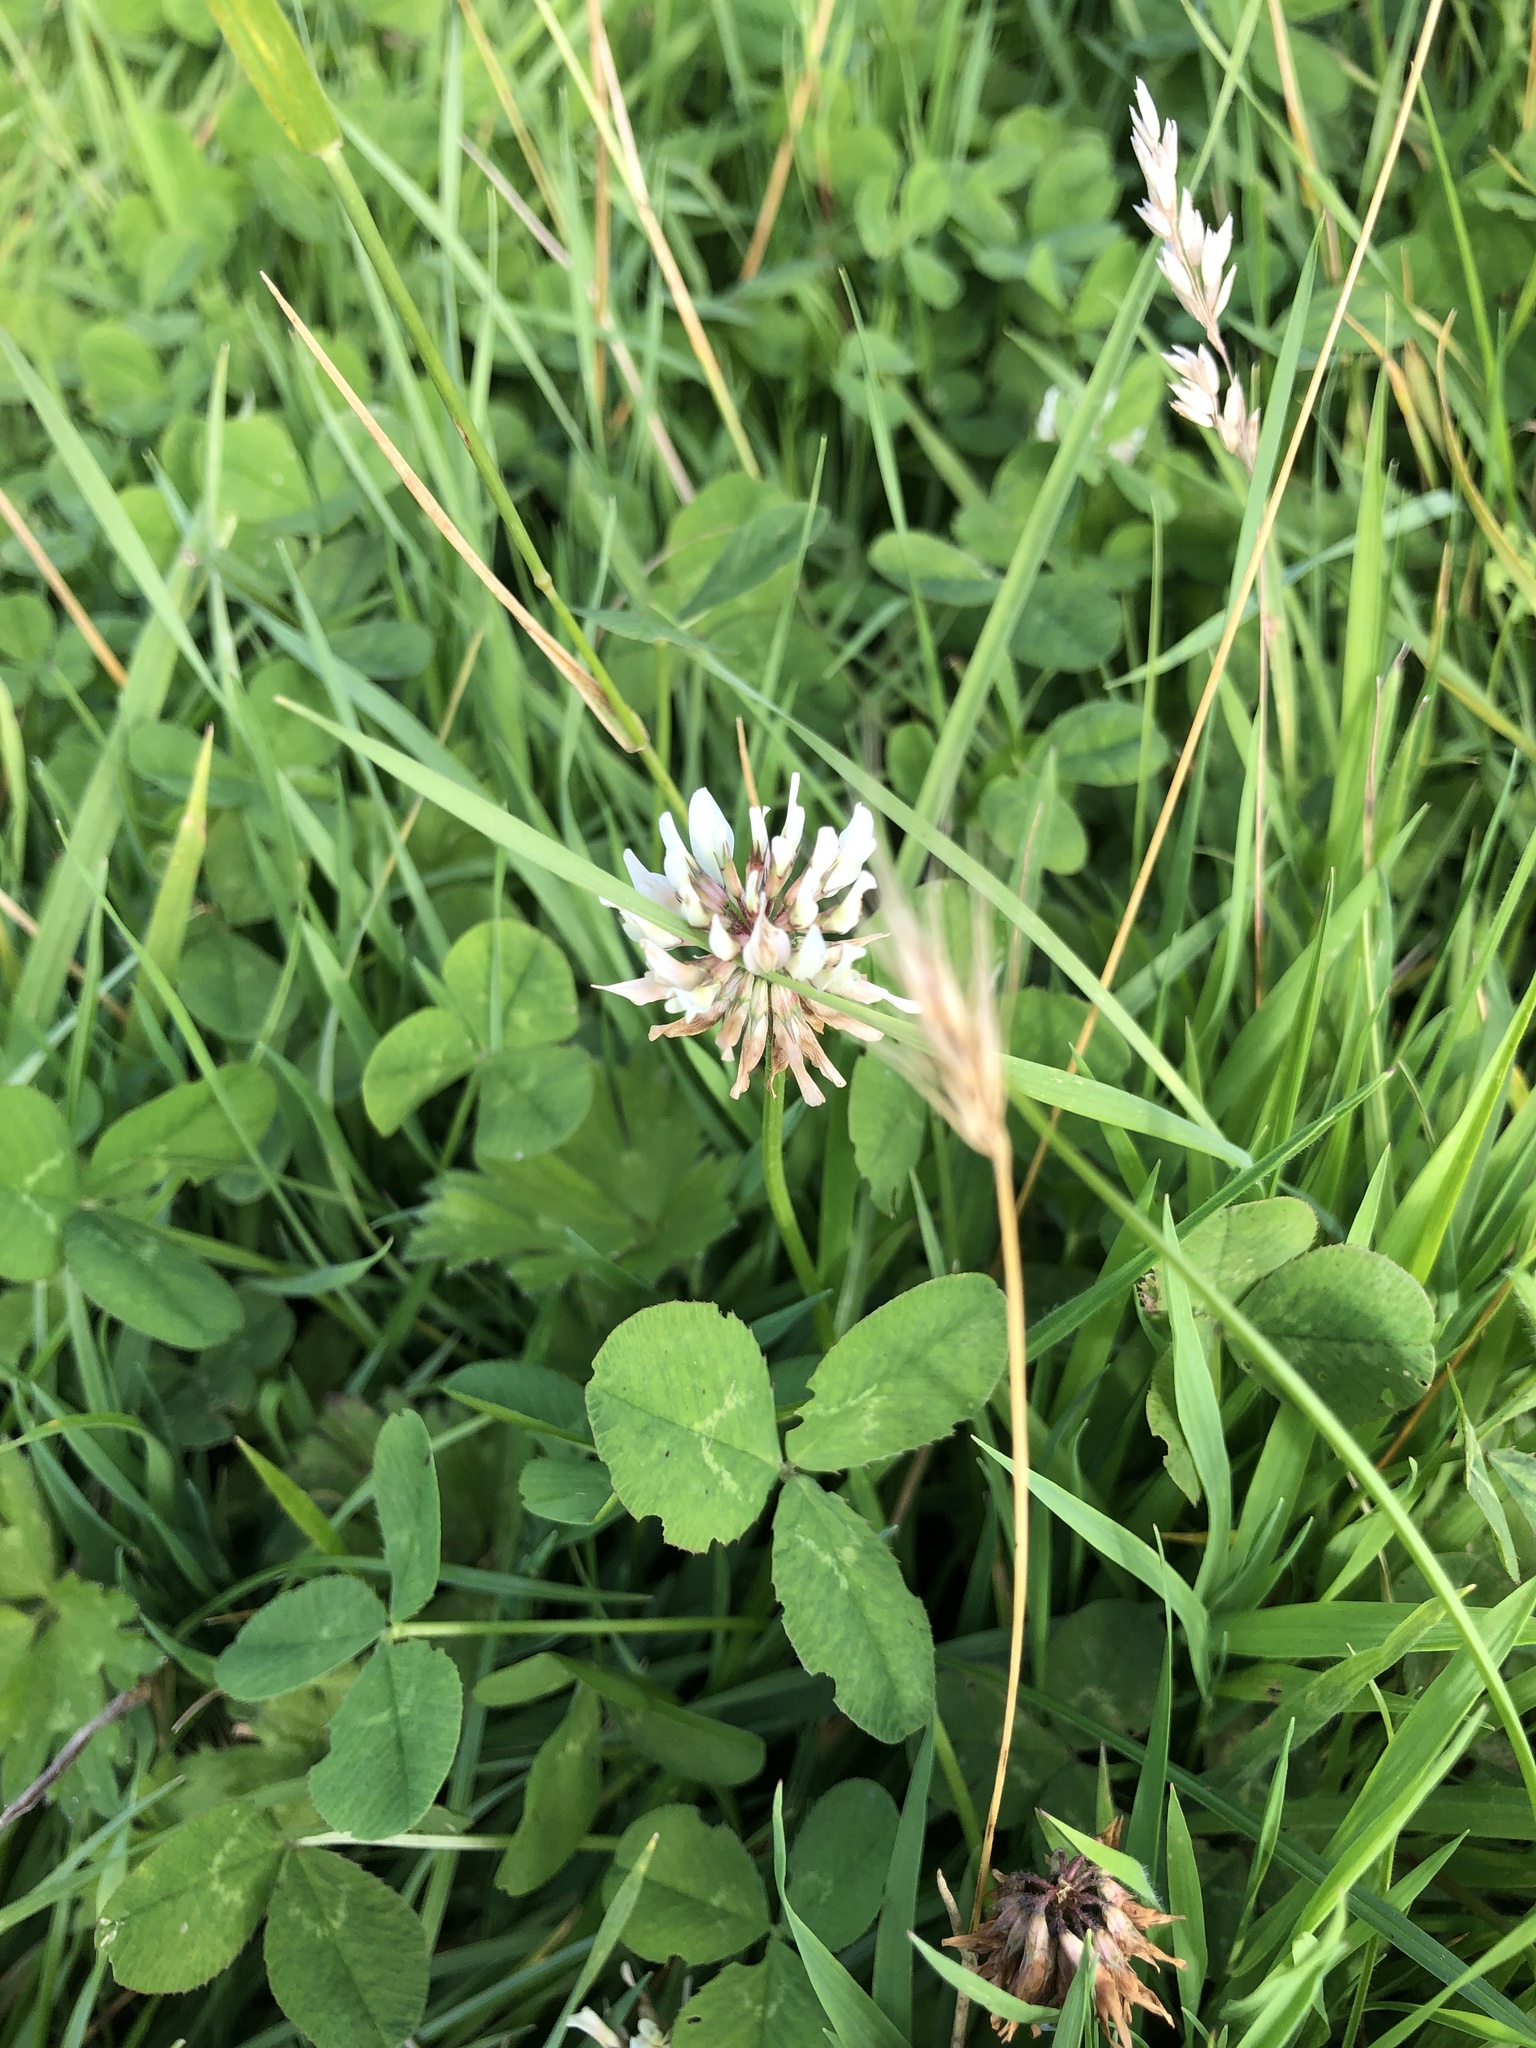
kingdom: Plantae
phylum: Tracheophyta
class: Magnoliopsida
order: Fabales
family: Fabaceae
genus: Trifolium
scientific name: Trifolium repens
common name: White clover
